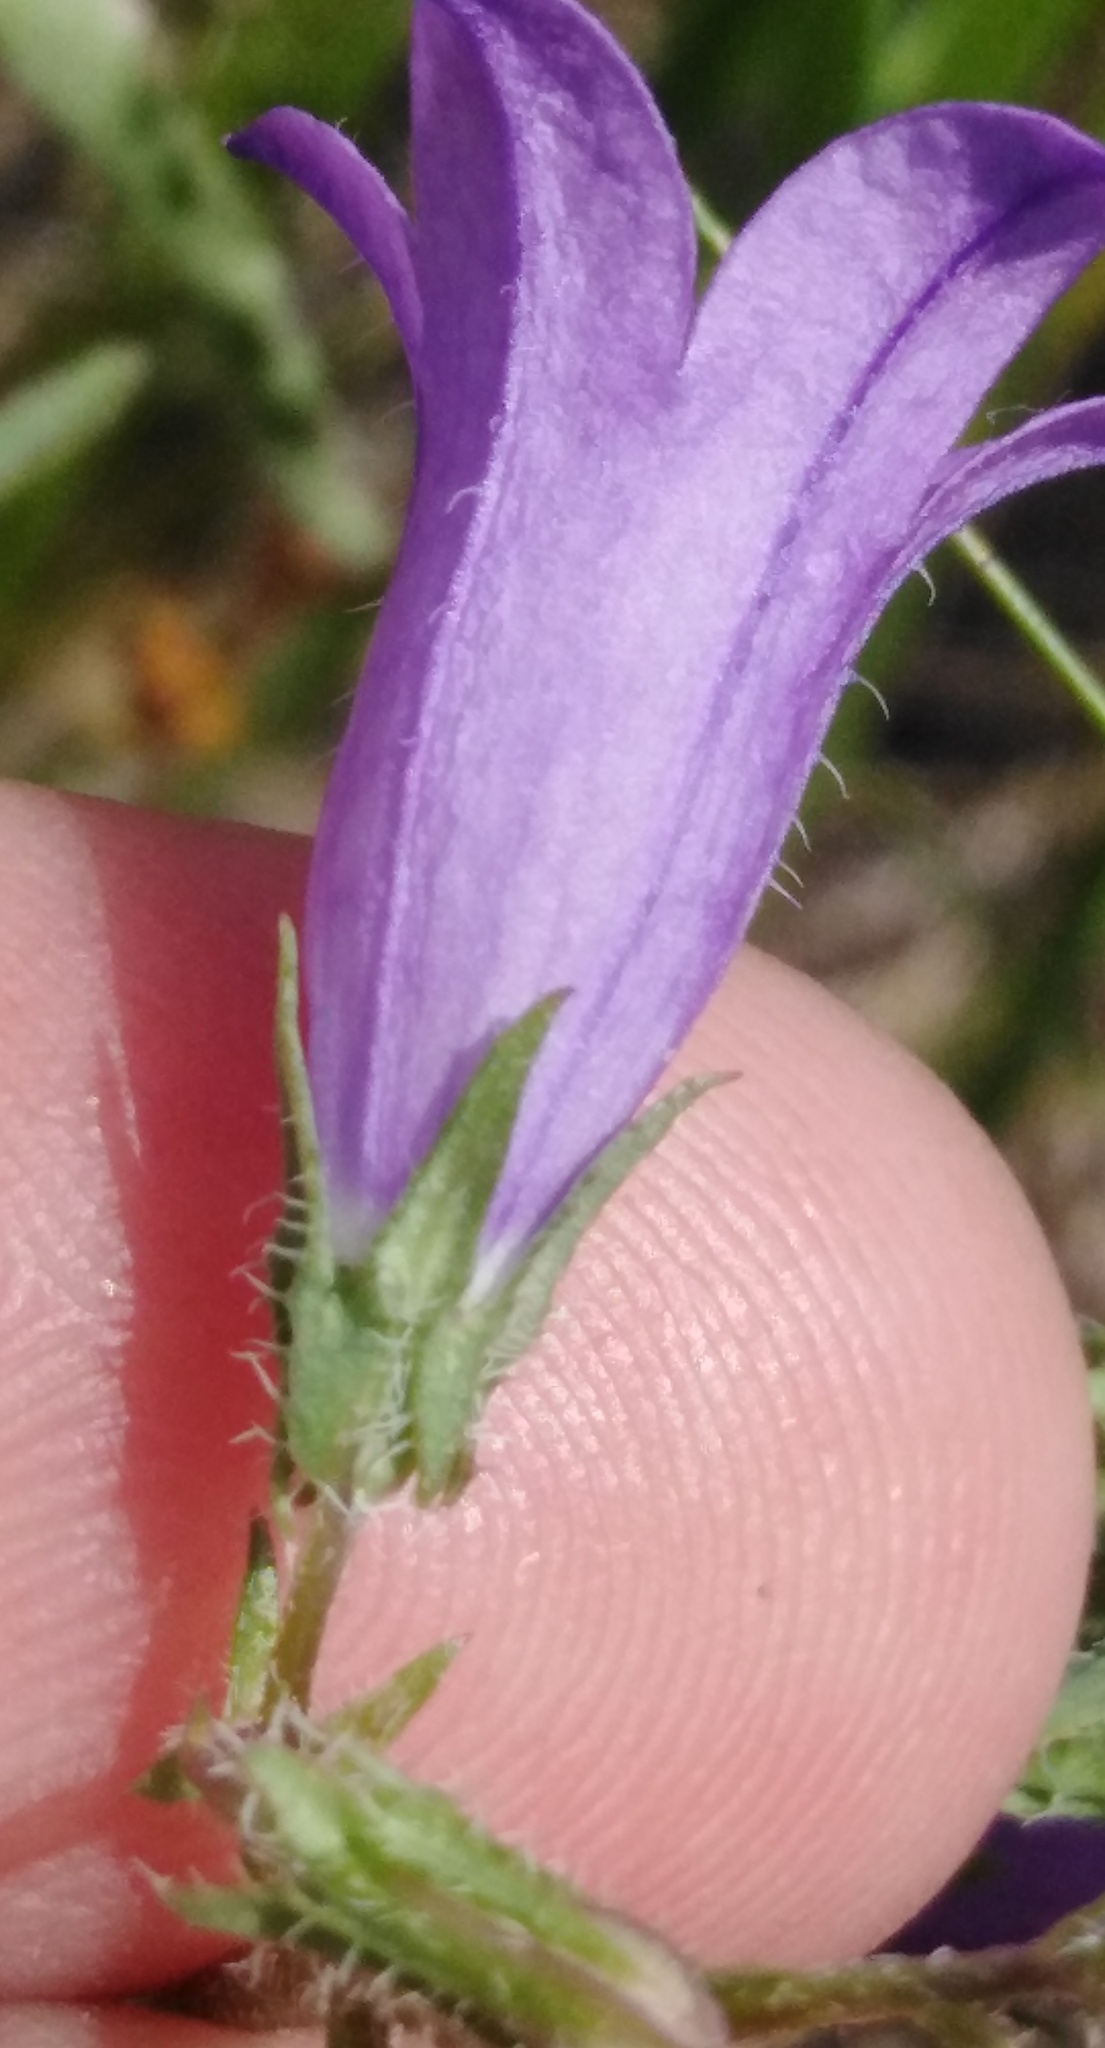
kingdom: Plantae
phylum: Tracheophyta
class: Magnoliopsida
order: Asterales
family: Campanulaceae
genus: Campanula
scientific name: Campanula sibirica
